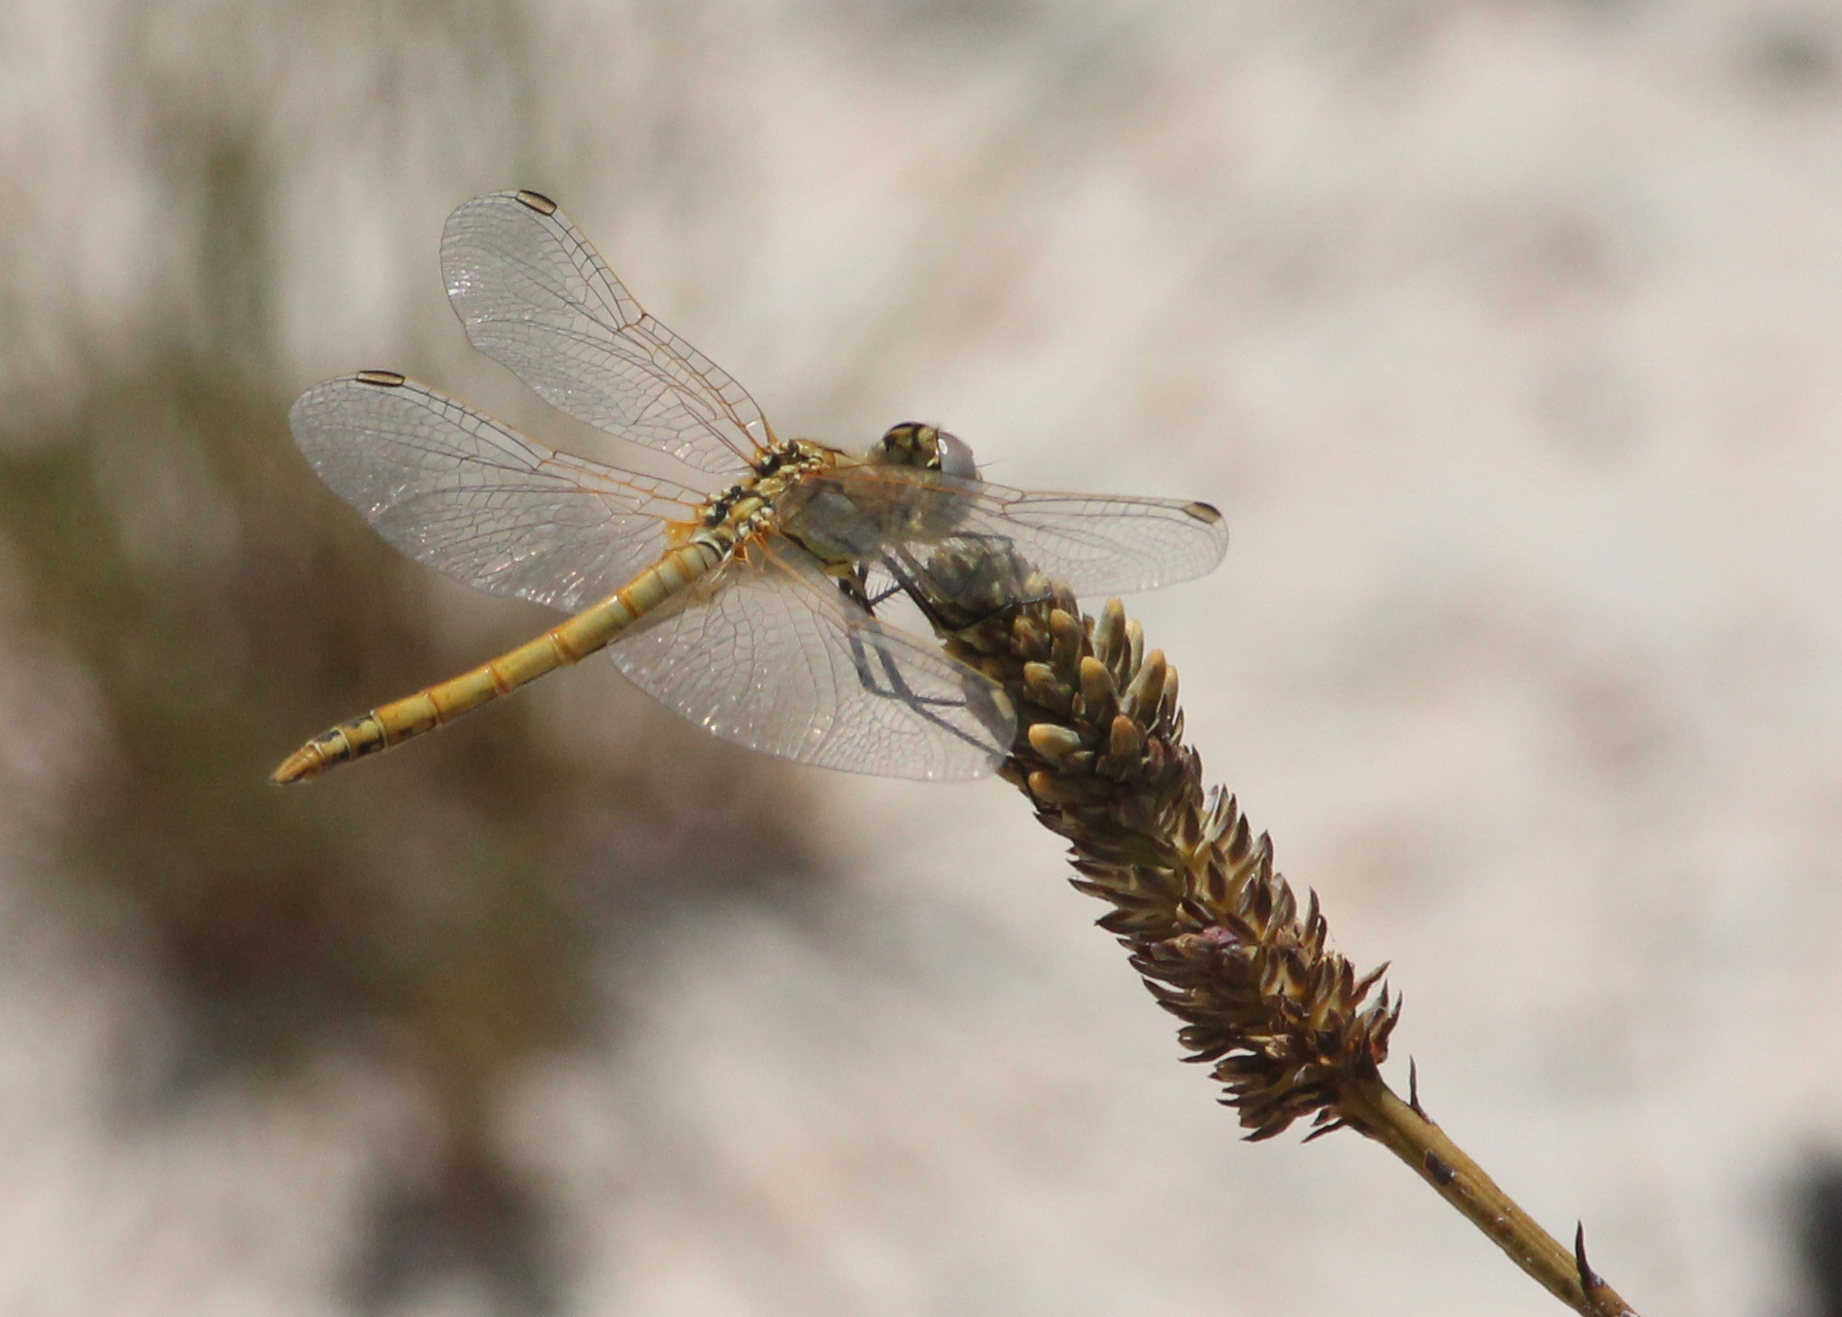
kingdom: Animalia
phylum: Arthropoda
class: Insecta
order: Odonata
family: Libellulidae
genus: Sympetrum
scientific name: Sympetrum fonscolombii
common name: Red-veined darter
